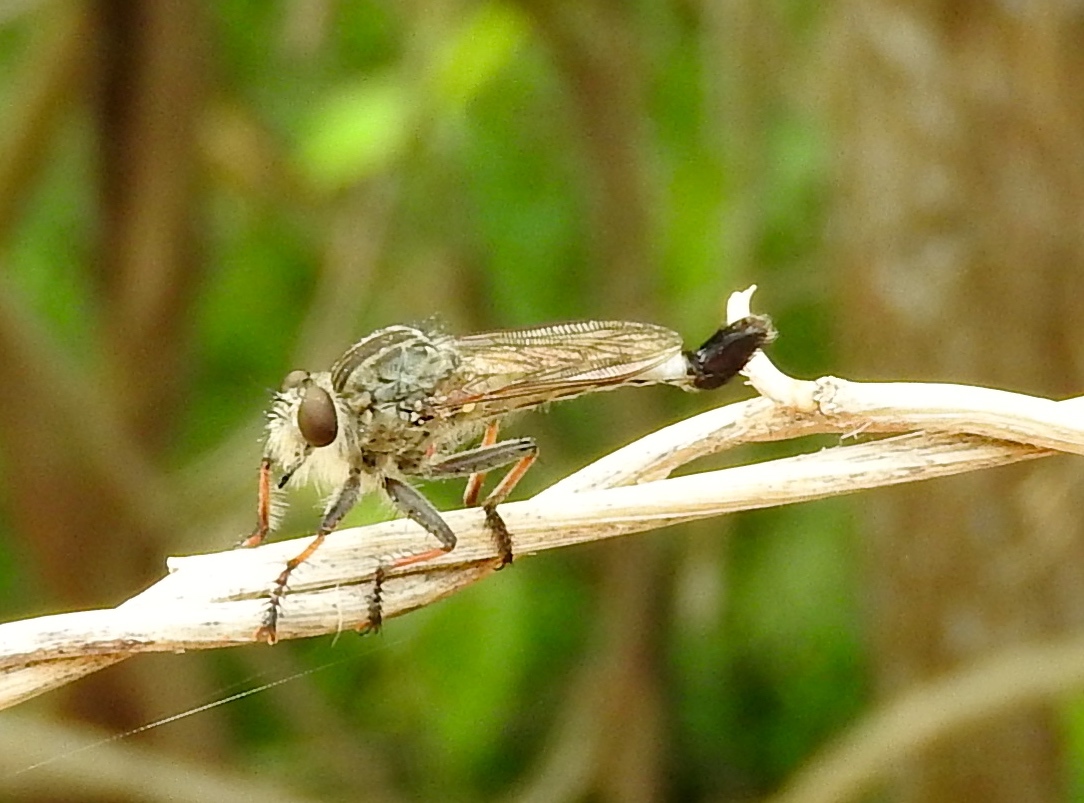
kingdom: Animalia
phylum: Arthropoda
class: Insecta
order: Diptera
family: Asilidae
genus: Efferia
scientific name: Efferia
